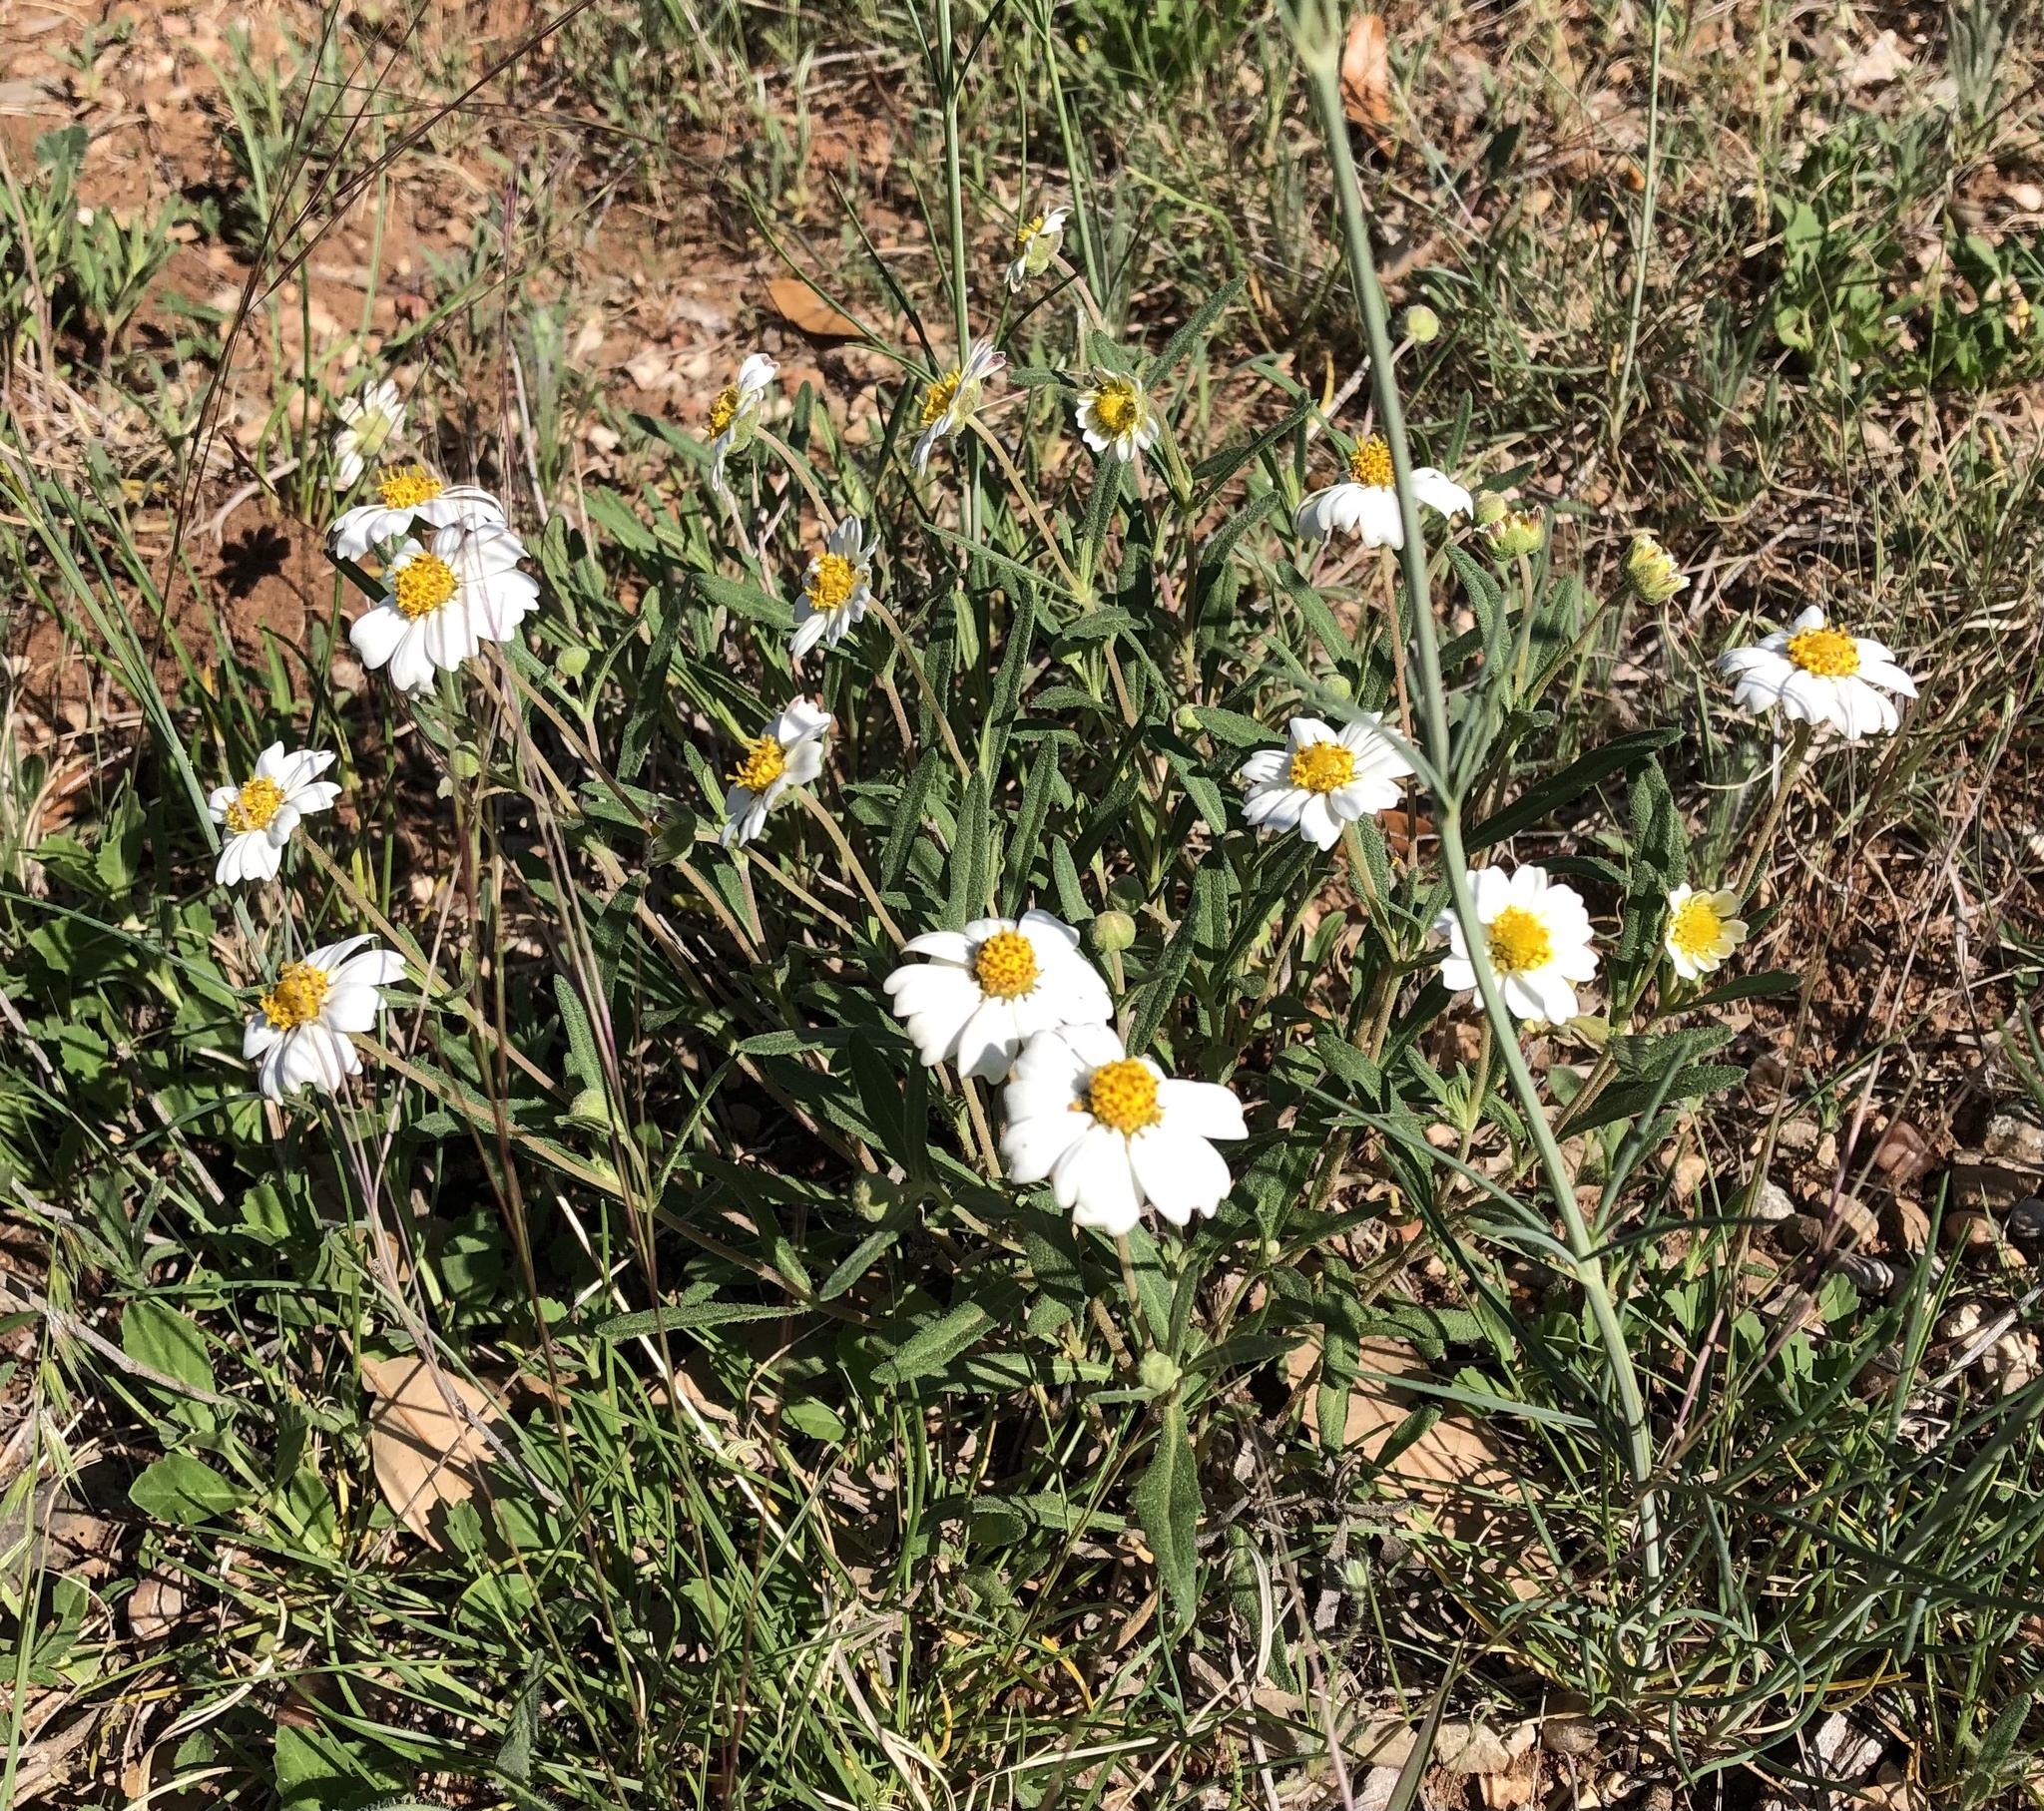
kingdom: Plantae
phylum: Tracheophyta
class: Magnoliopsida
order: Asterales
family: Asteraceae
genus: Melampodium
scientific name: Melampodium leucanthum
